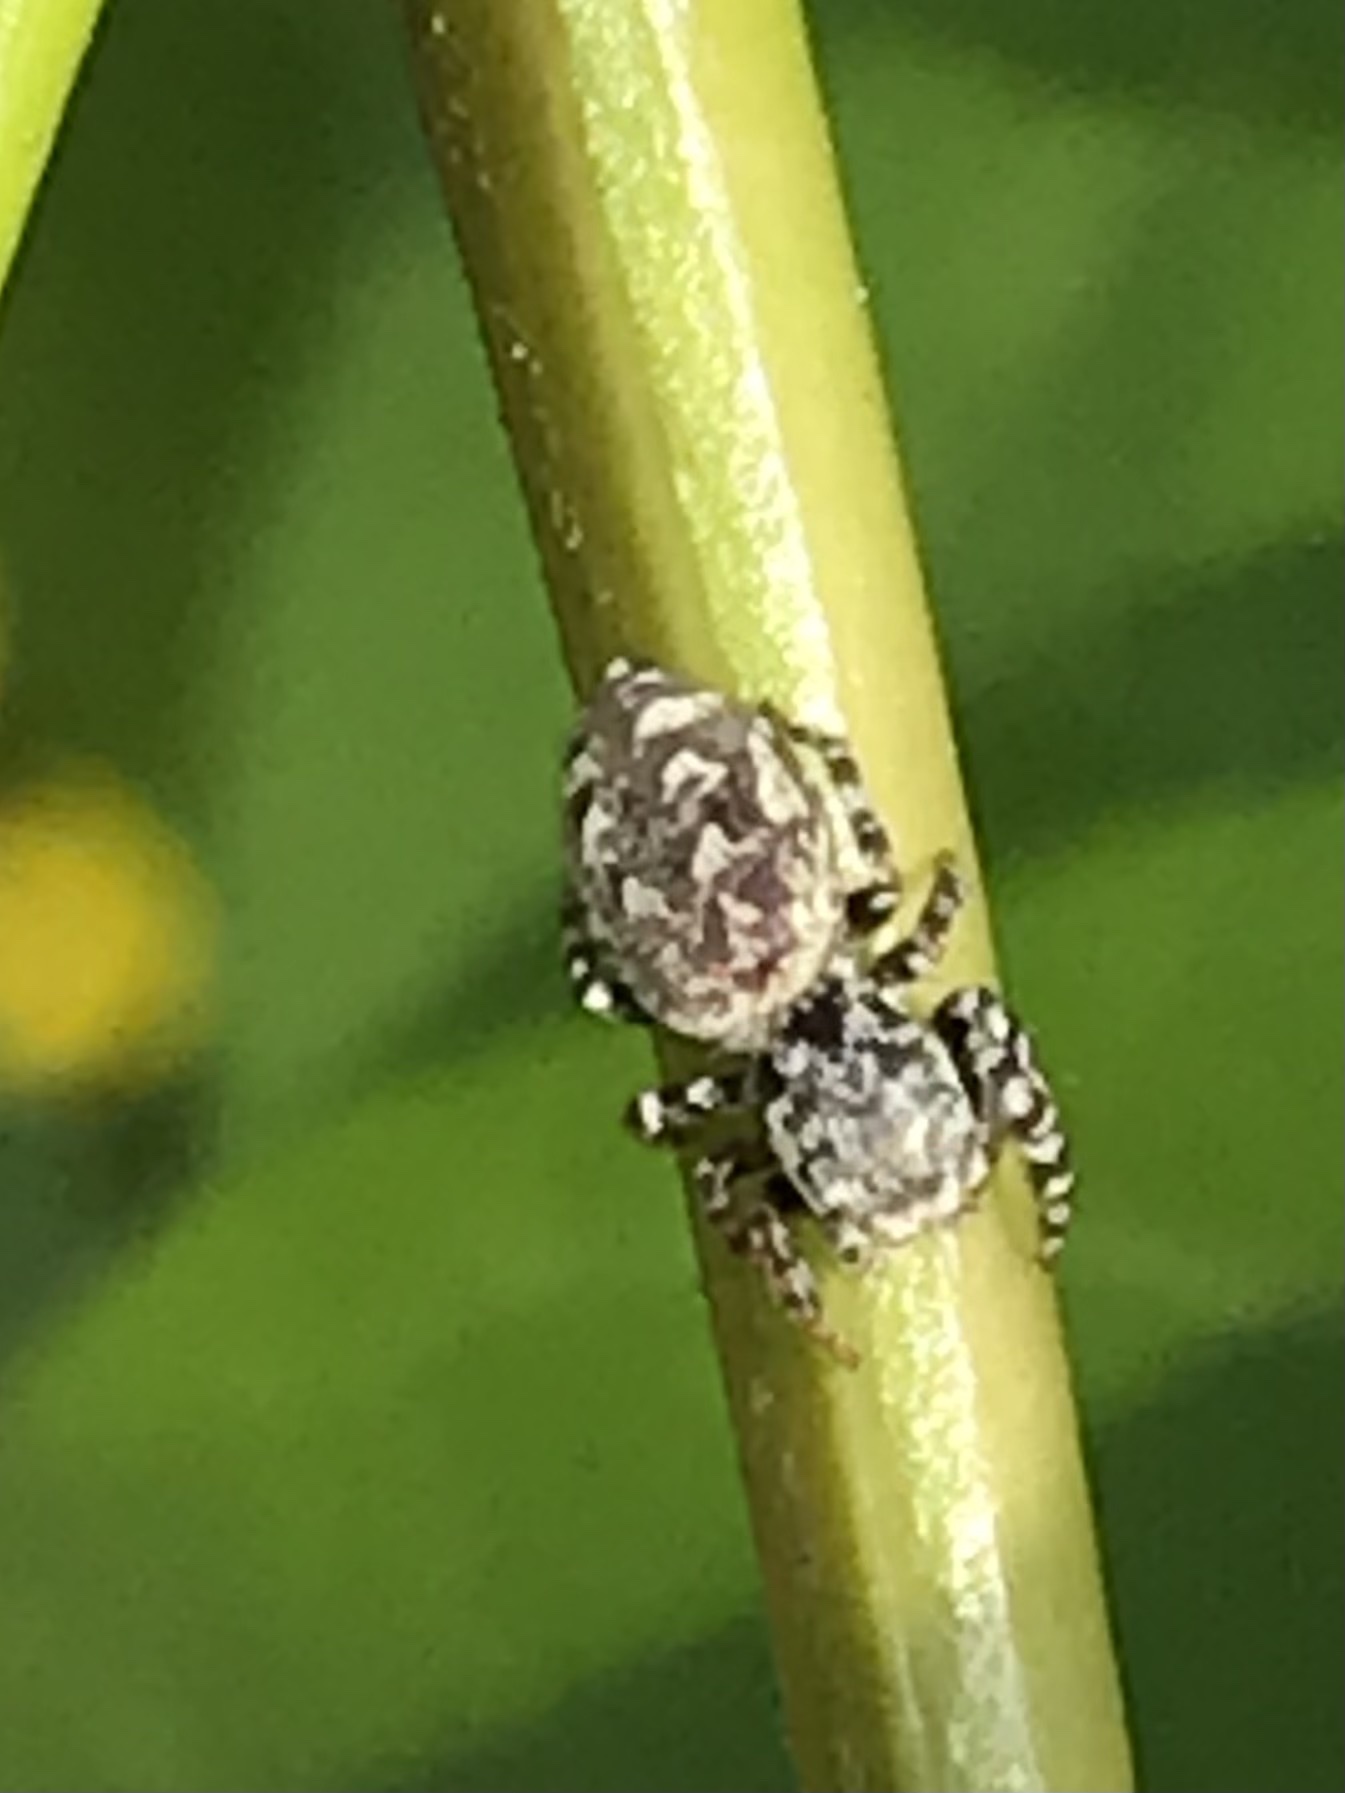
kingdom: Animalia
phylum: Arthropoda
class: Arachnida
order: Araneae
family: Salticidae
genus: Pelegrina
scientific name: Pelegrina galathea
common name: Jumping spiders
